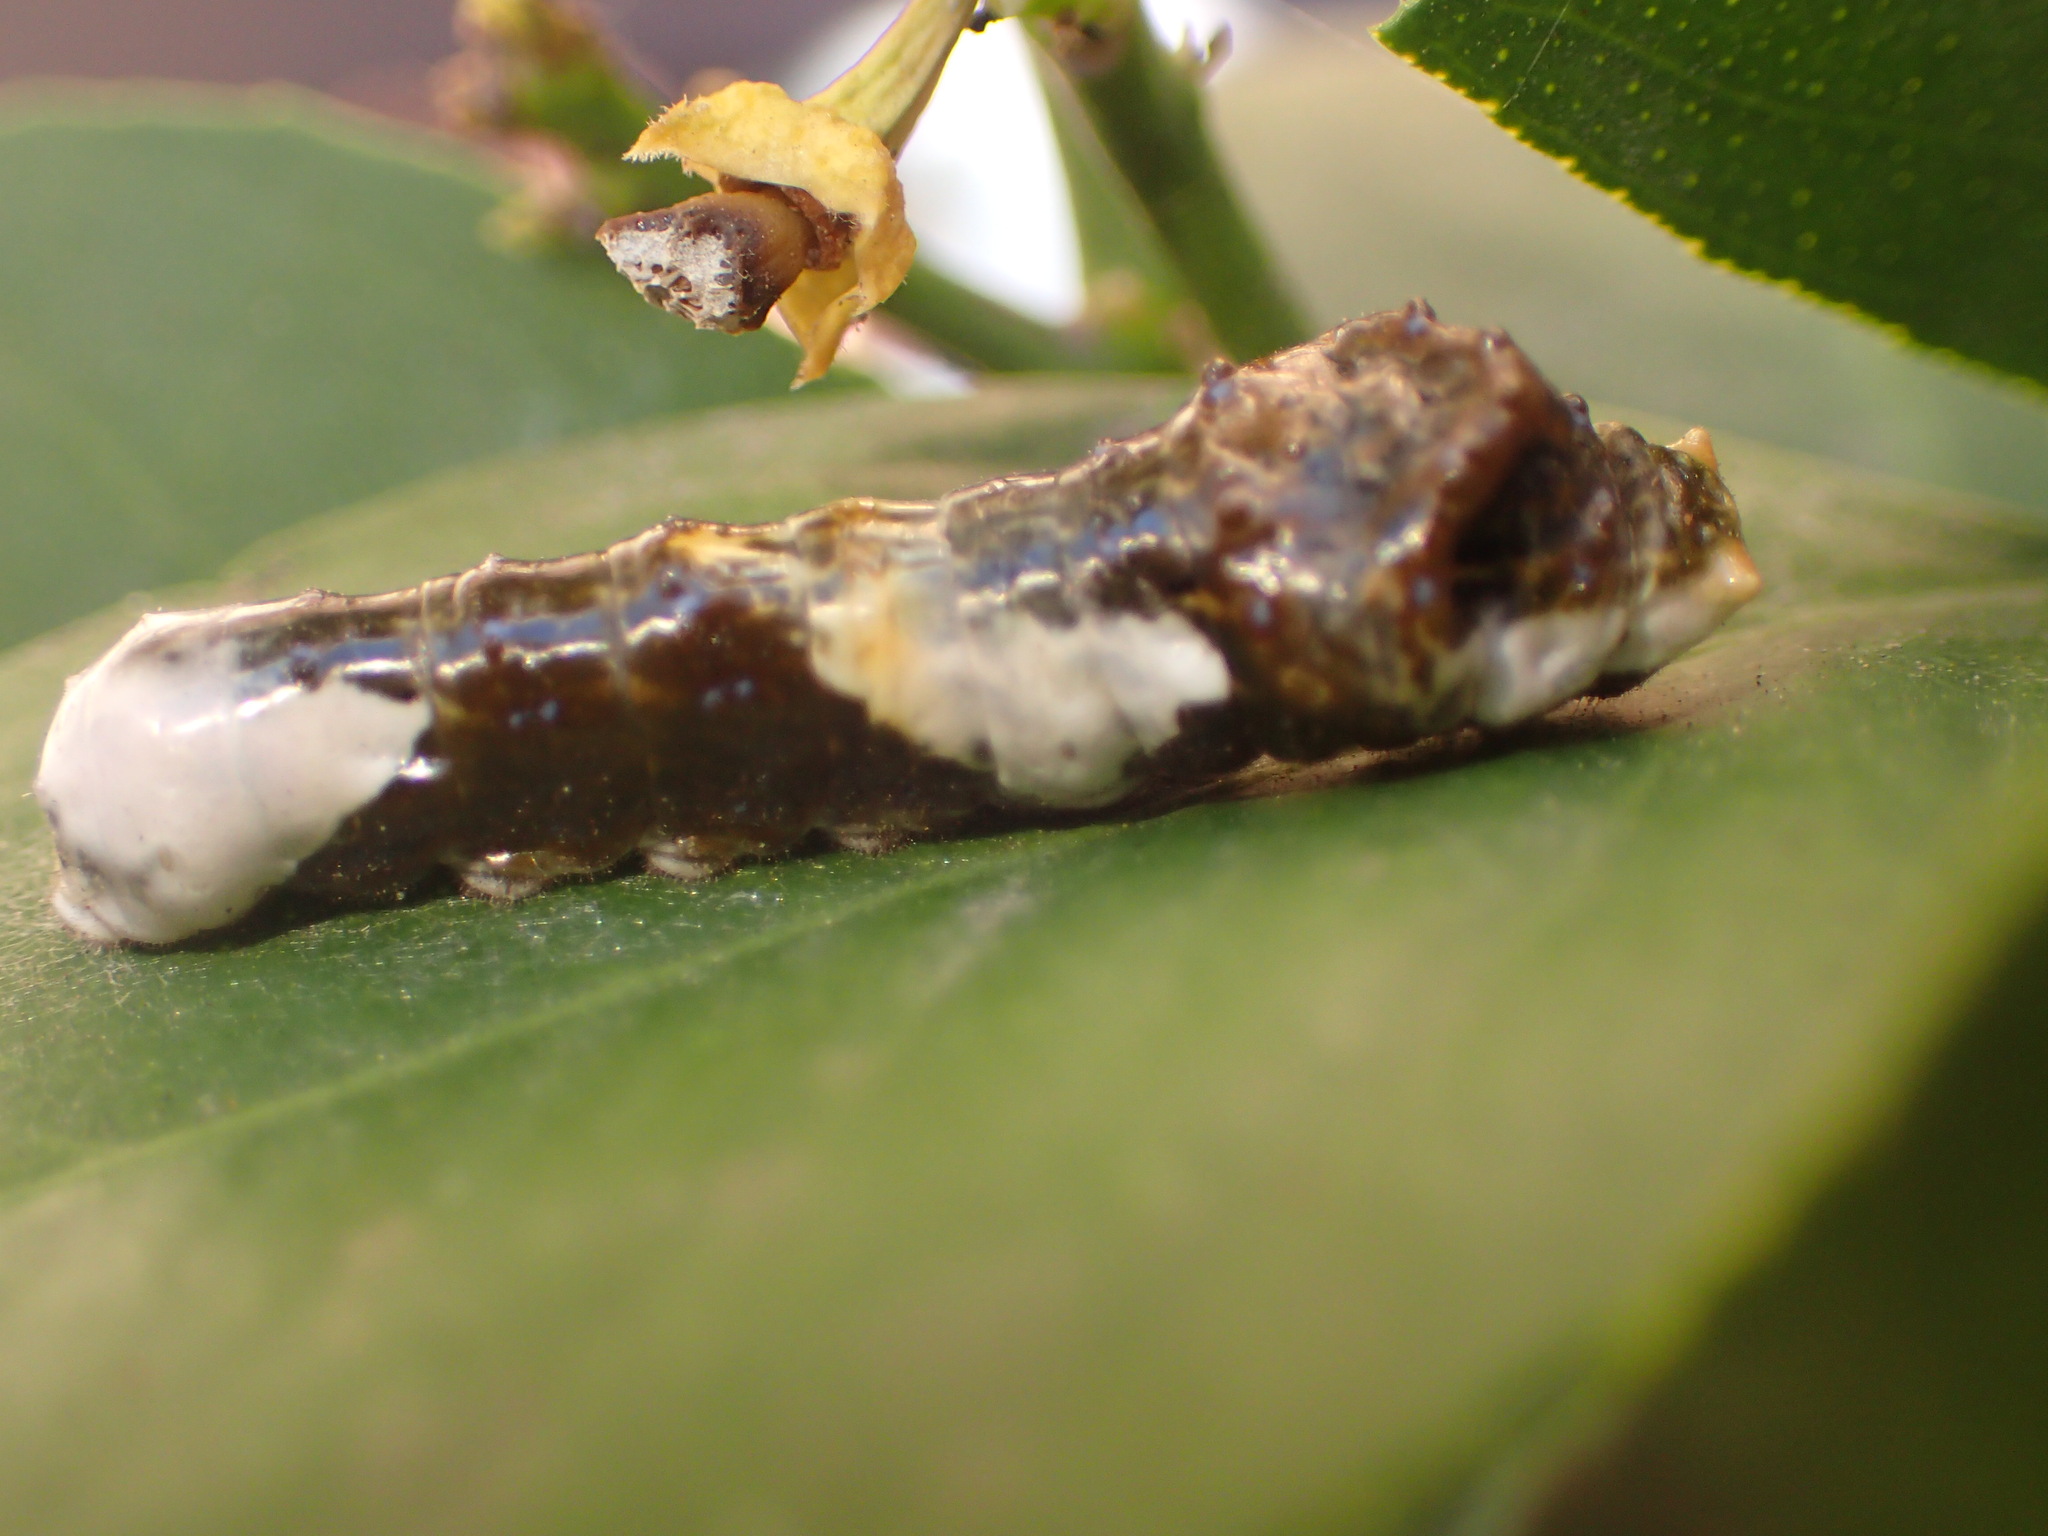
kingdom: Animalia
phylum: Arthropoda
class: Insecta
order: Lepidoptera
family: Papilionidae
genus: Papilio
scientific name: Papilio rumiko
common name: Western giant swallowtail
